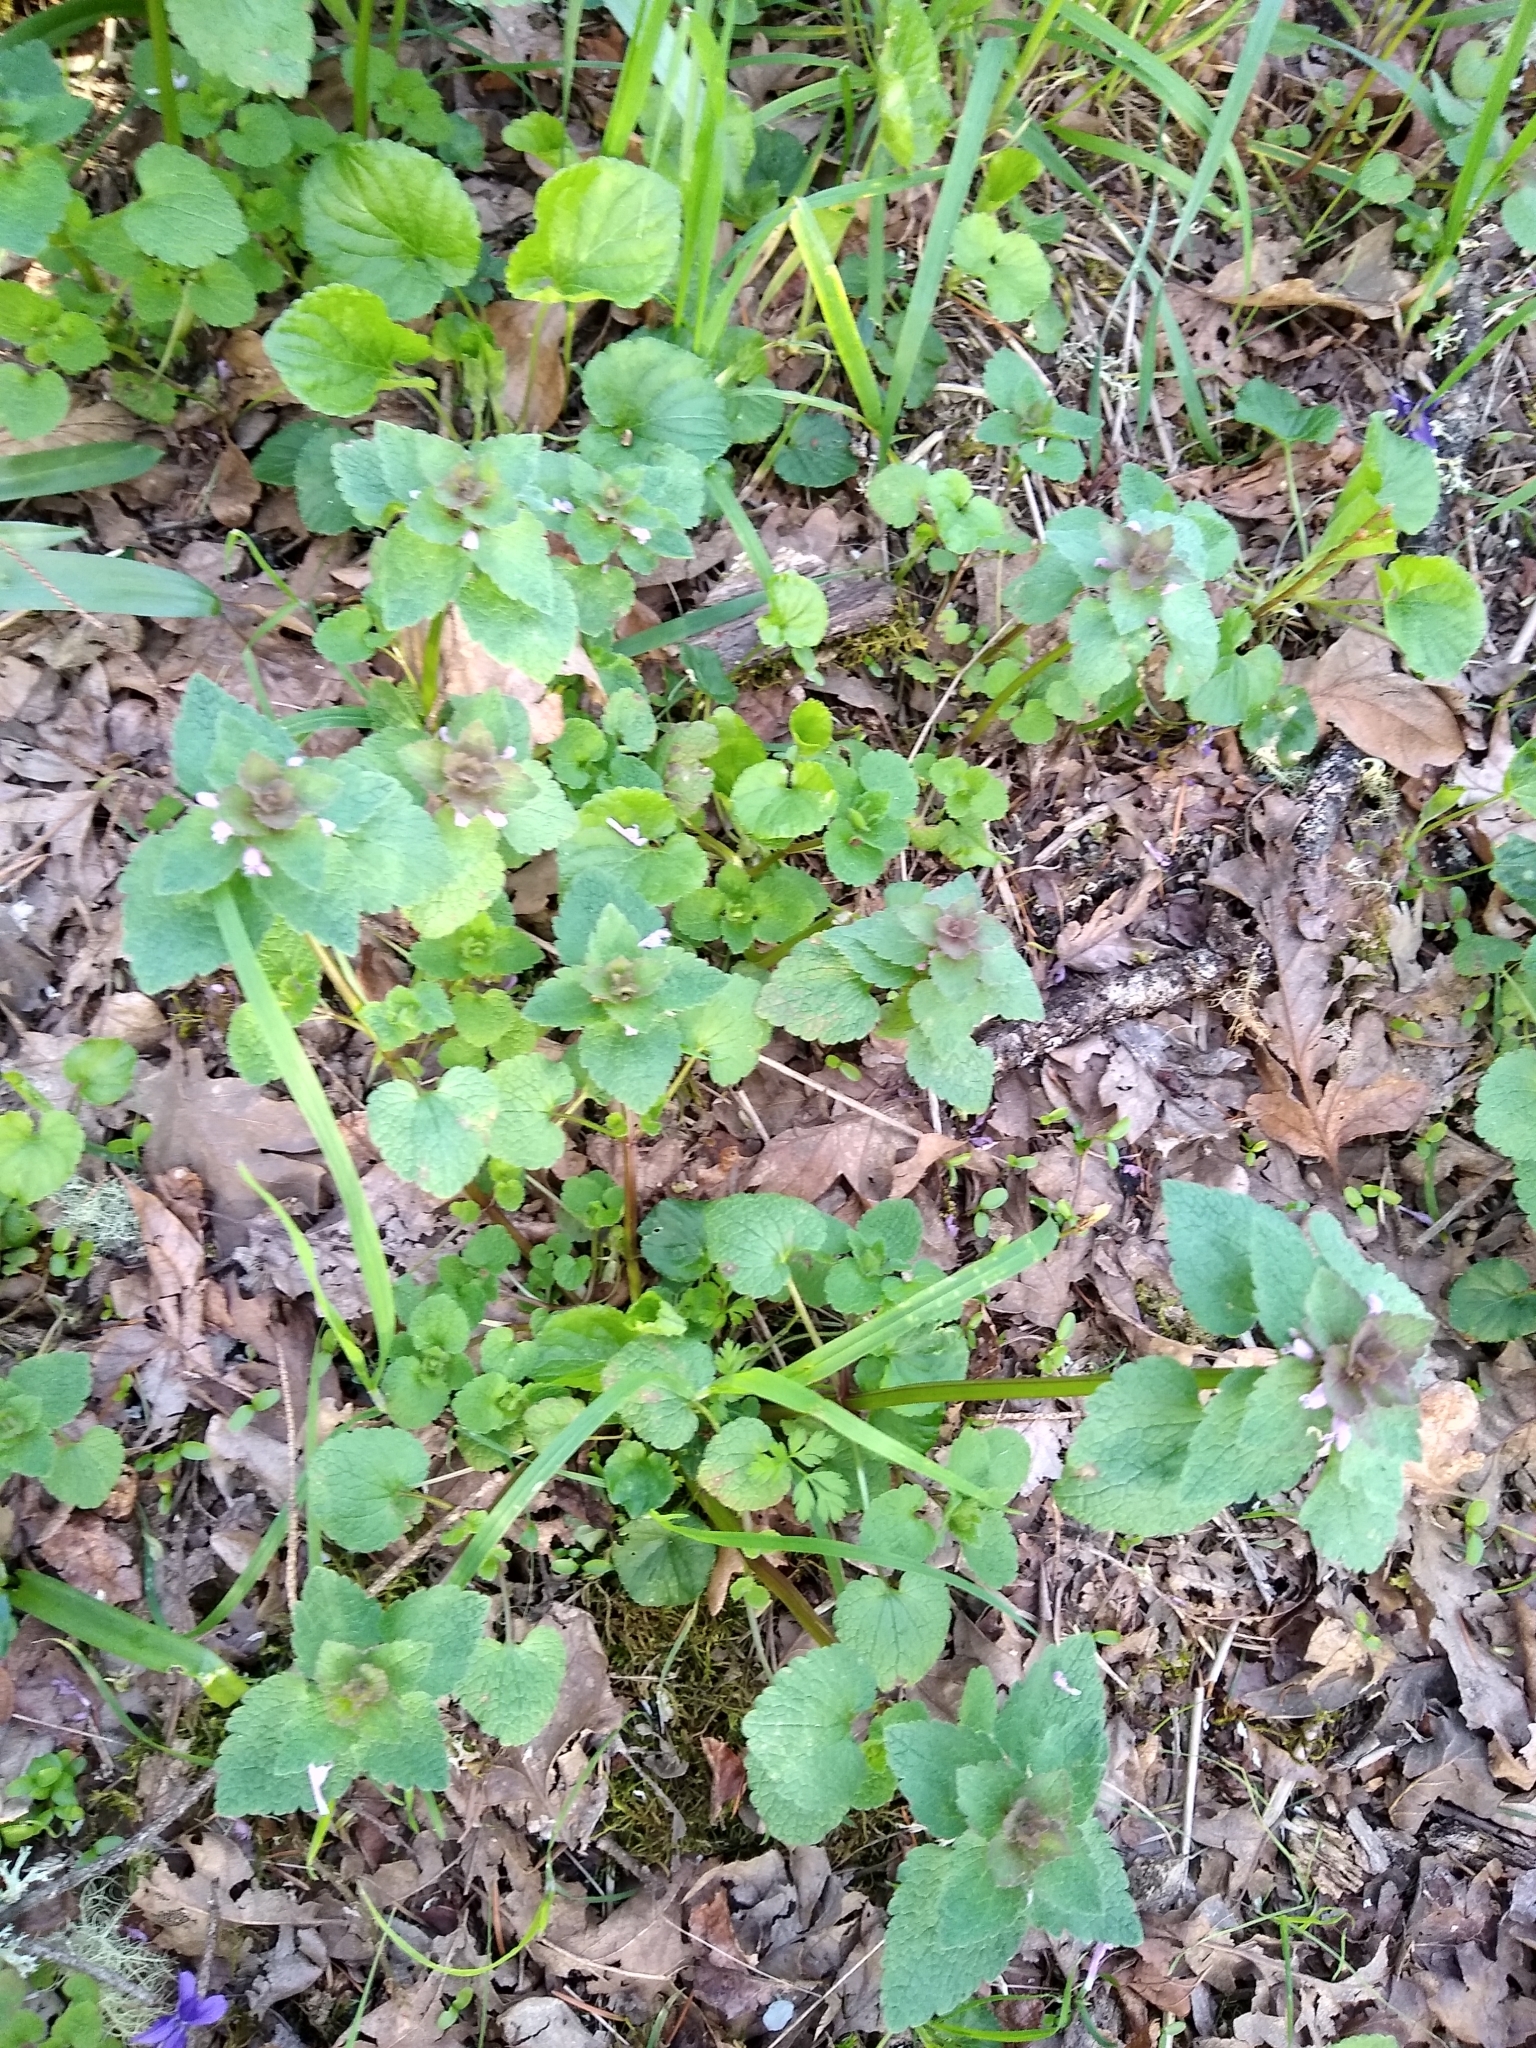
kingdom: Plantae
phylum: Tracheophyta
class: Magnoliopsida
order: Lamiales
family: Lamiaceae
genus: Lamium
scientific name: Lamium purpureum
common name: Red dead-nettle
